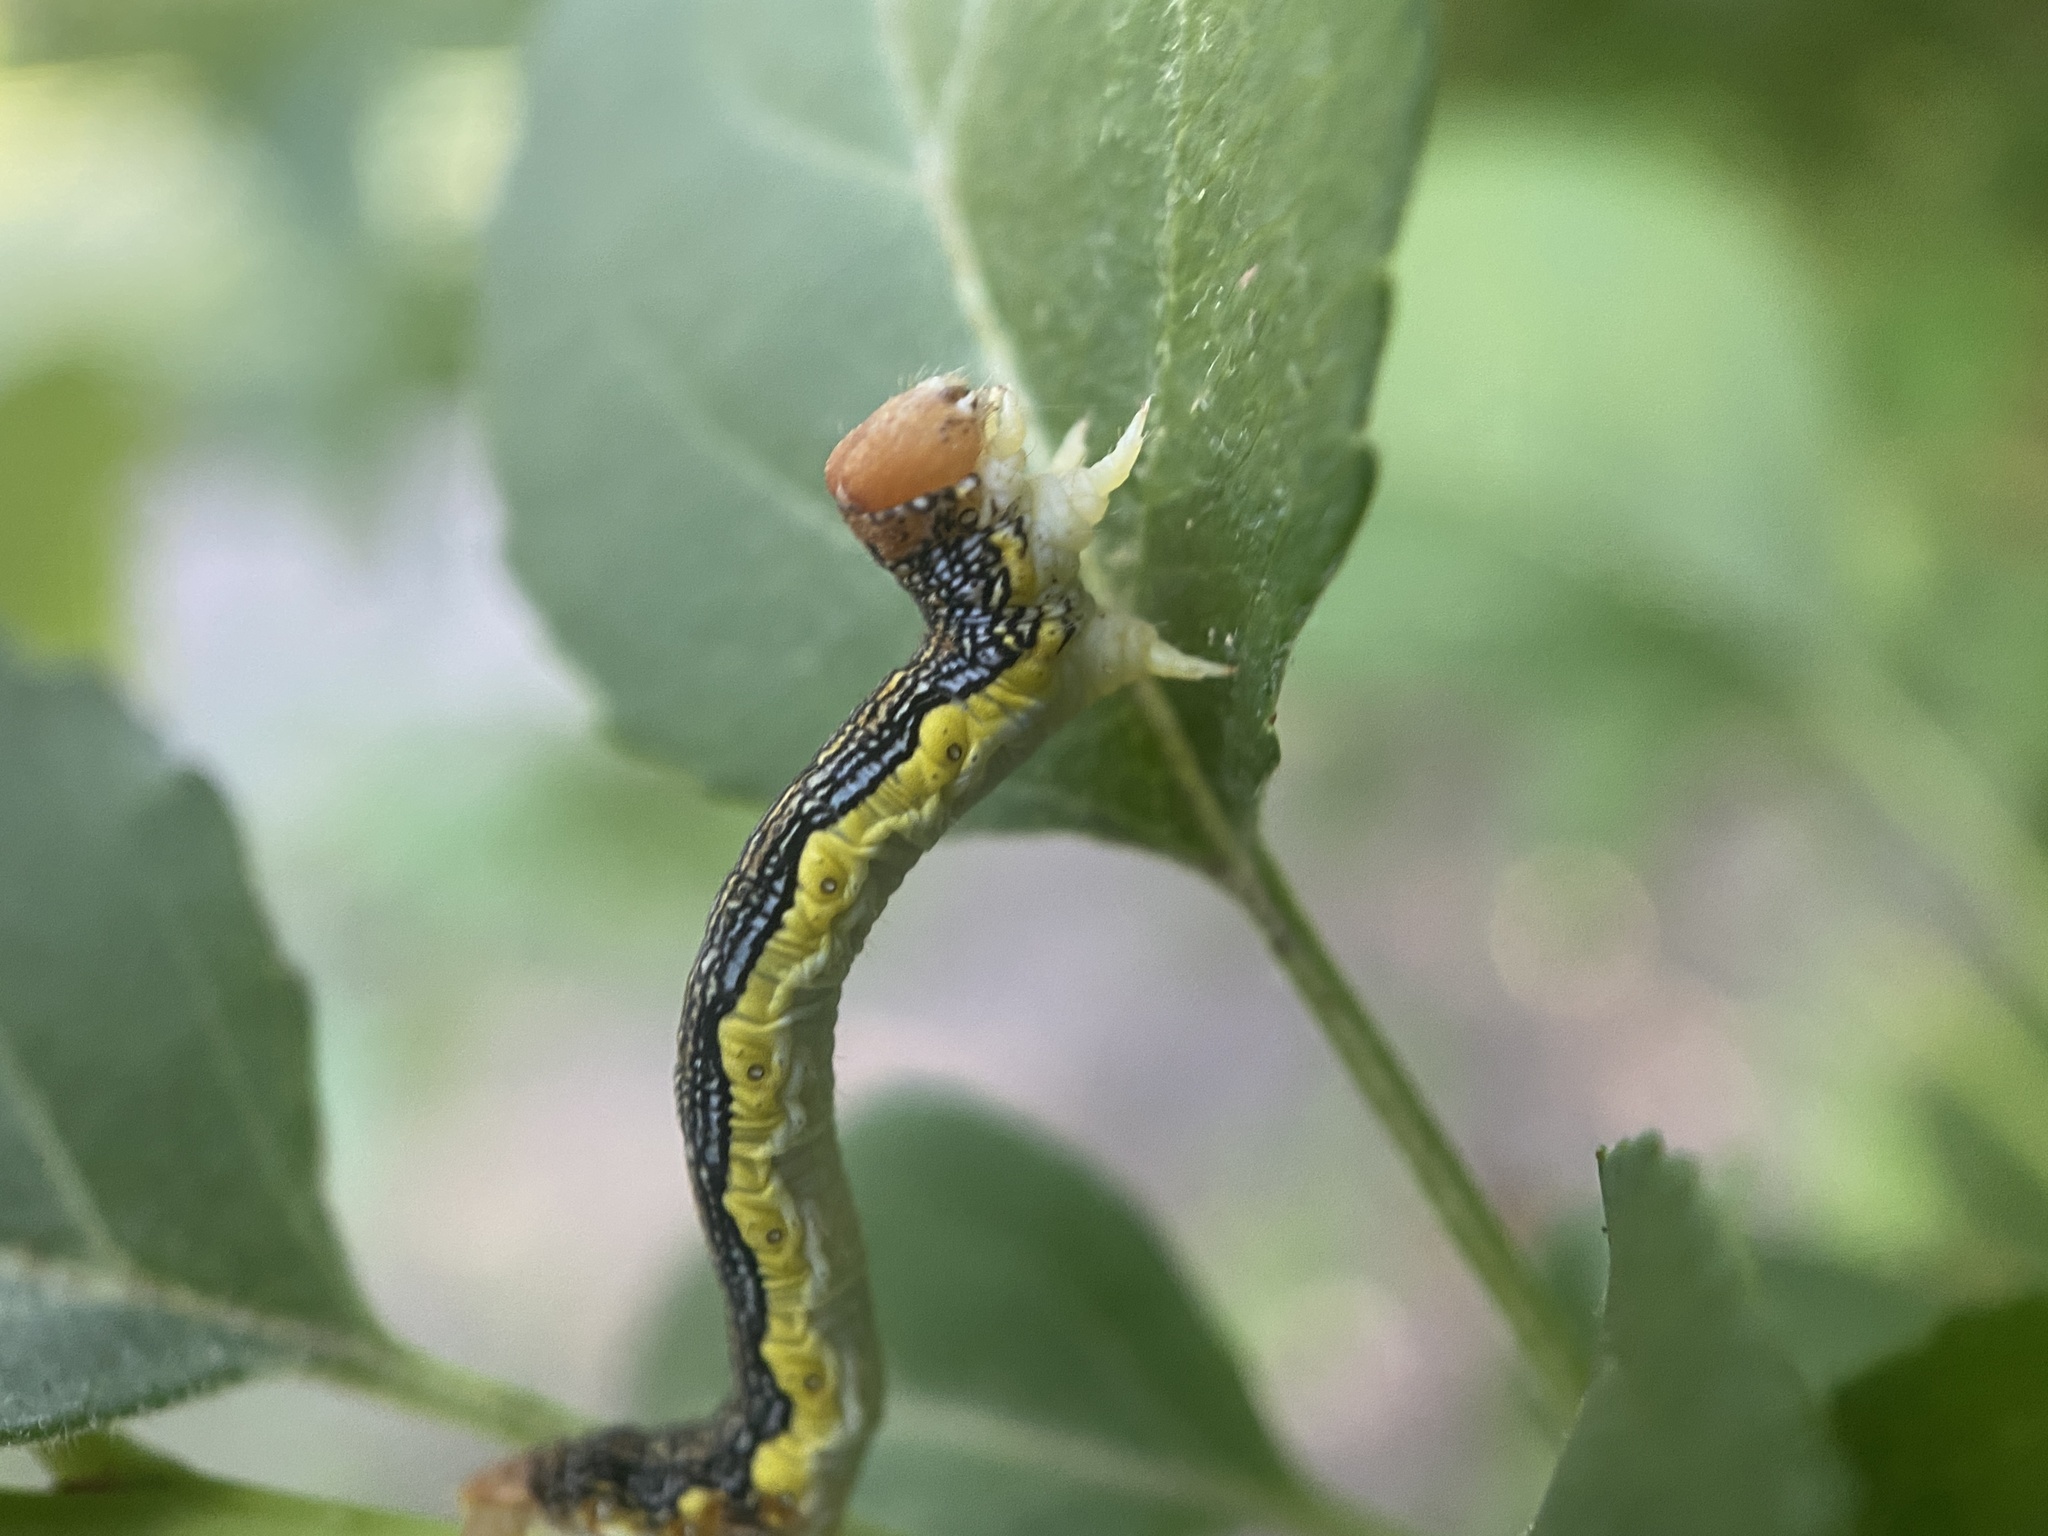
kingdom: Animalia
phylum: Arthropoda
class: Insecta
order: Lepidoptera
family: Geometridae
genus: Erannis
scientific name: Erannis tiliaria
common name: Linden looper
